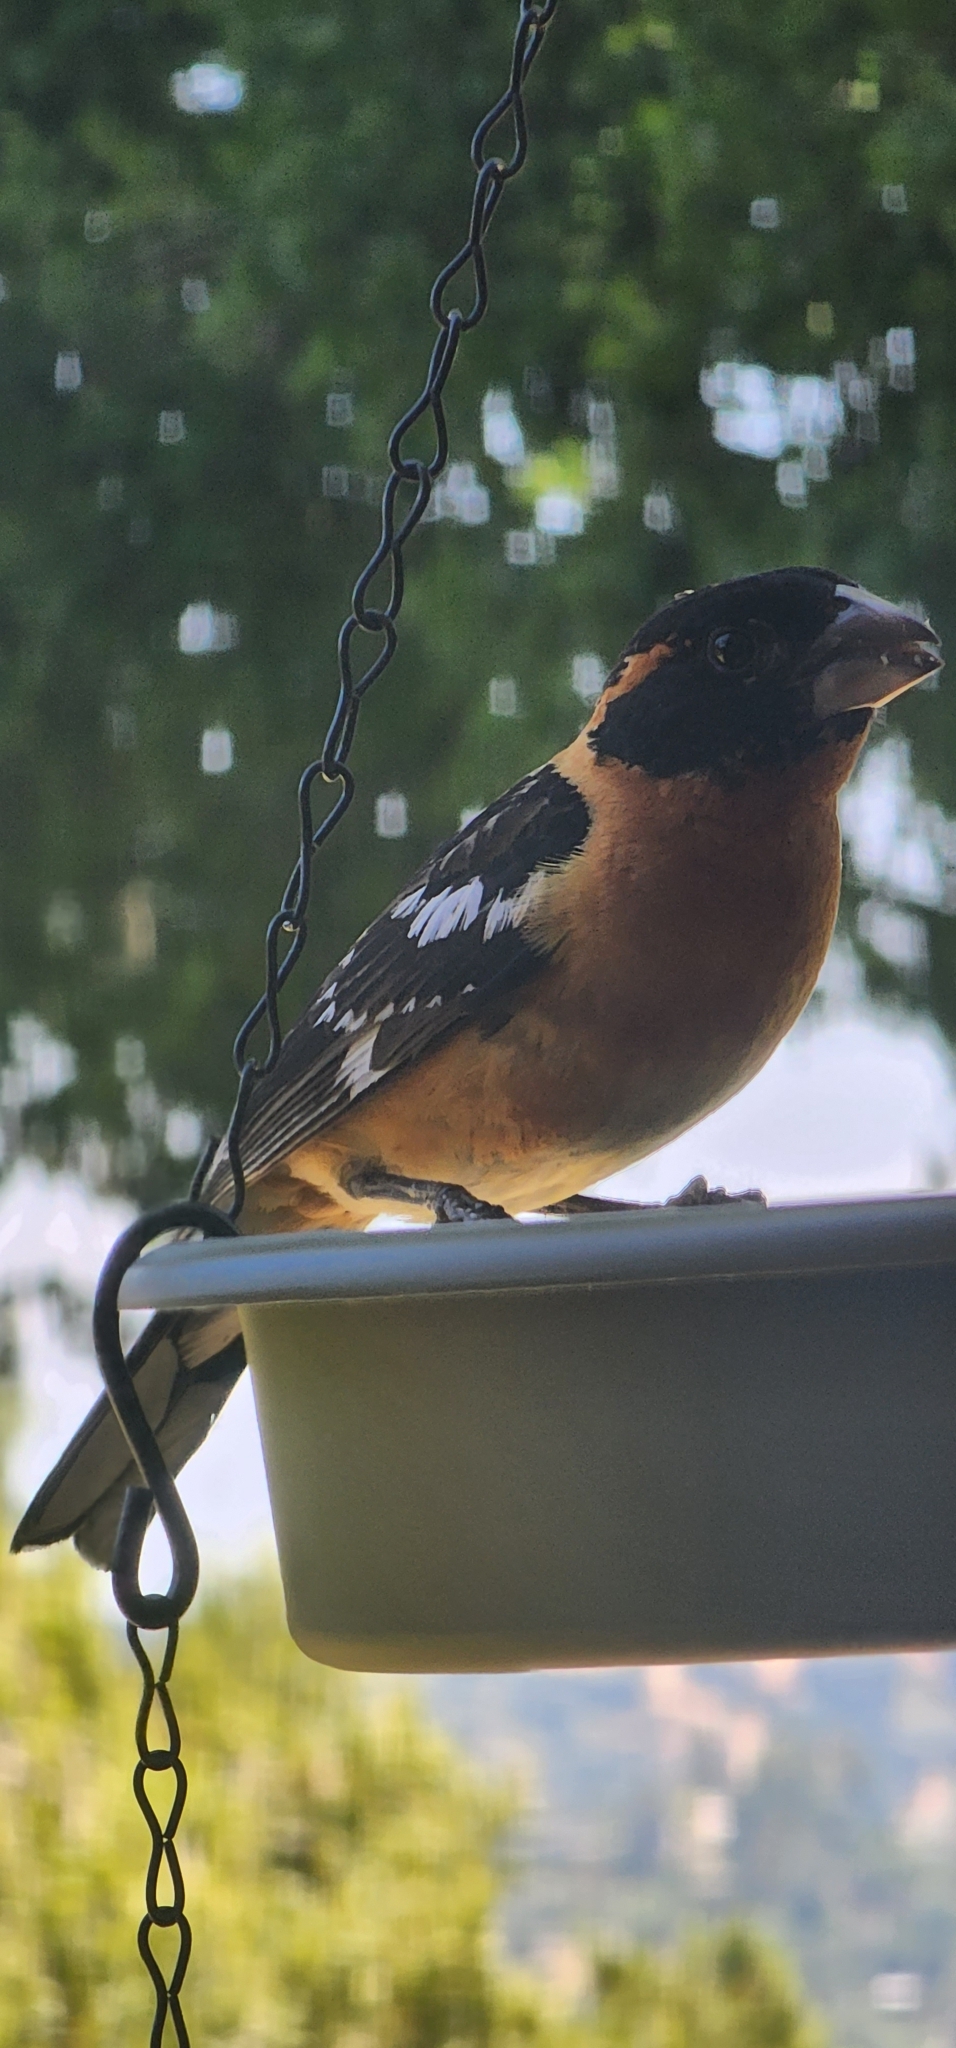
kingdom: Animalia
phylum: Chordata
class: Aves
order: Passeriformes
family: Cardinalidae
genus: Pheucticus
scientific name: Pheucticus melanocephalus
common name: Black-headed grosbeak
